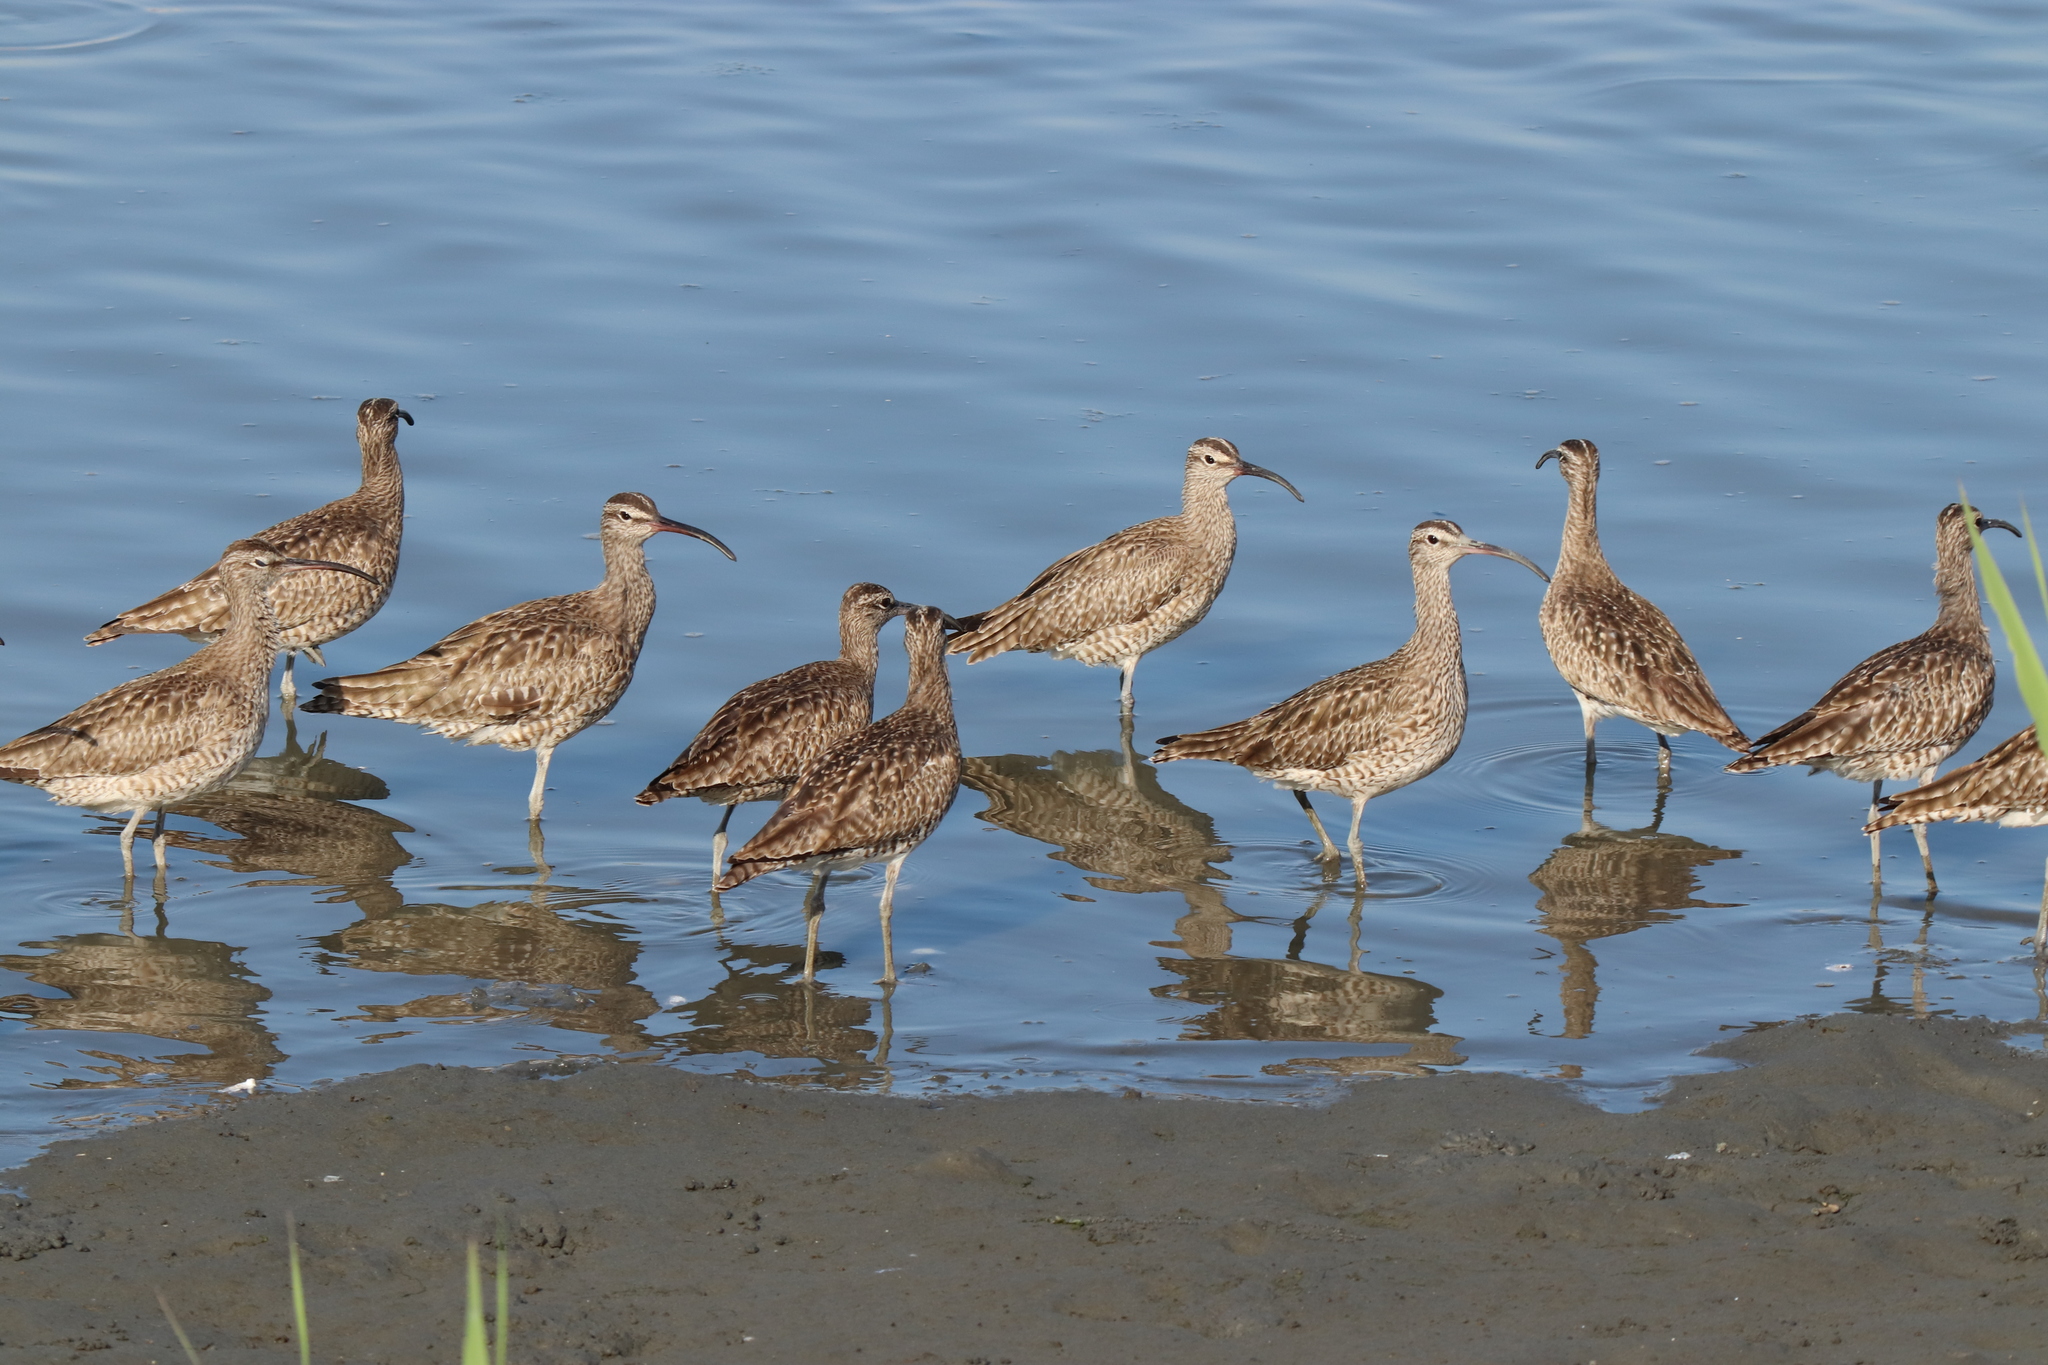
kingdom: Animalia
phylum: Chordata
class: Aves
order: Charadriiformes
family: Scolopacidae
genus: Numenius
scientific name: Numenius phaeopus
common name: Whimbrel
